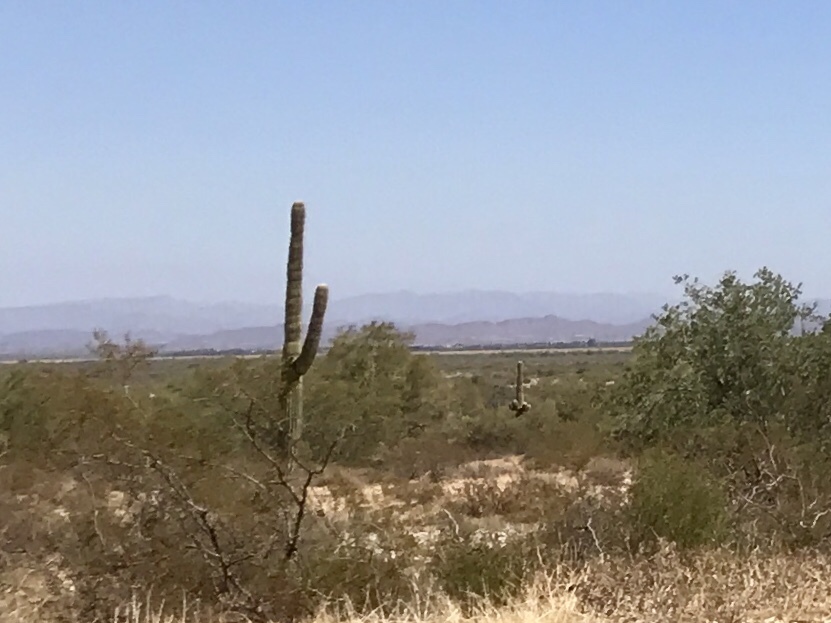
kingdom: Plantae
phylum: Tracheophyta
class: Magnoliopsida
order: Caryophyllales
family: Cactaceae
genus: Carnegiea
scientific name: Carnegiea gigantea
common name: Saguaro
